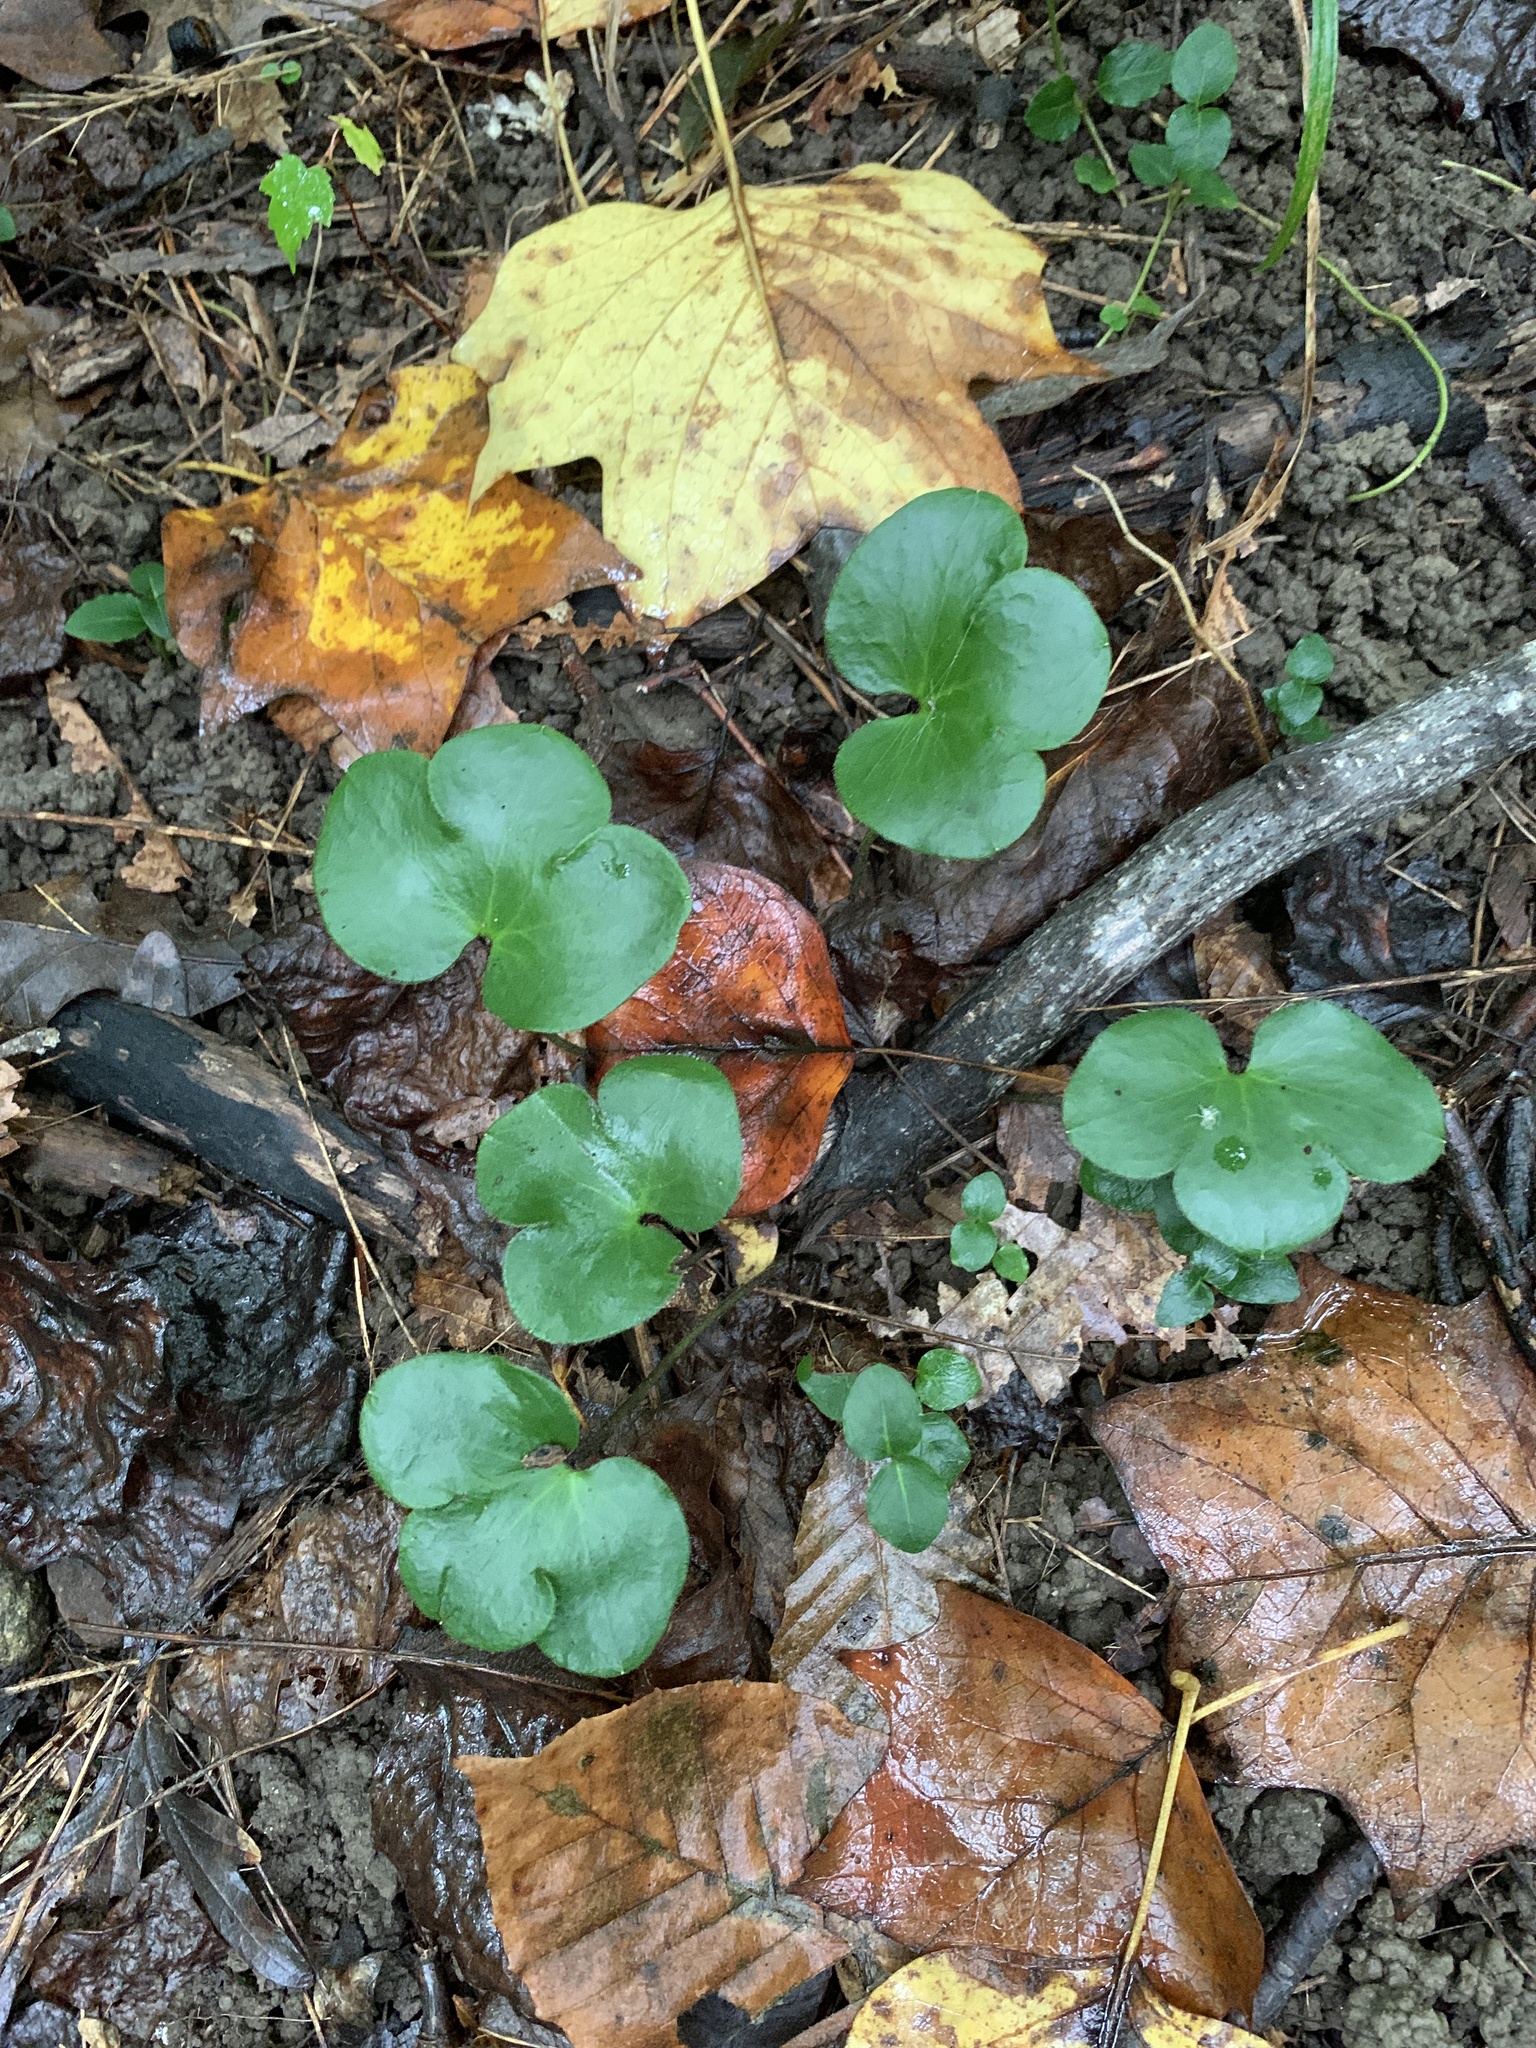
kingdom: Plantae
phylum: Tracheophyta
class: Magnoliopsida
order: Ranunculales
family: Ranunculaceae
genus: Hepatica
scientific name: Hepatica americana
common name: American hepatica
